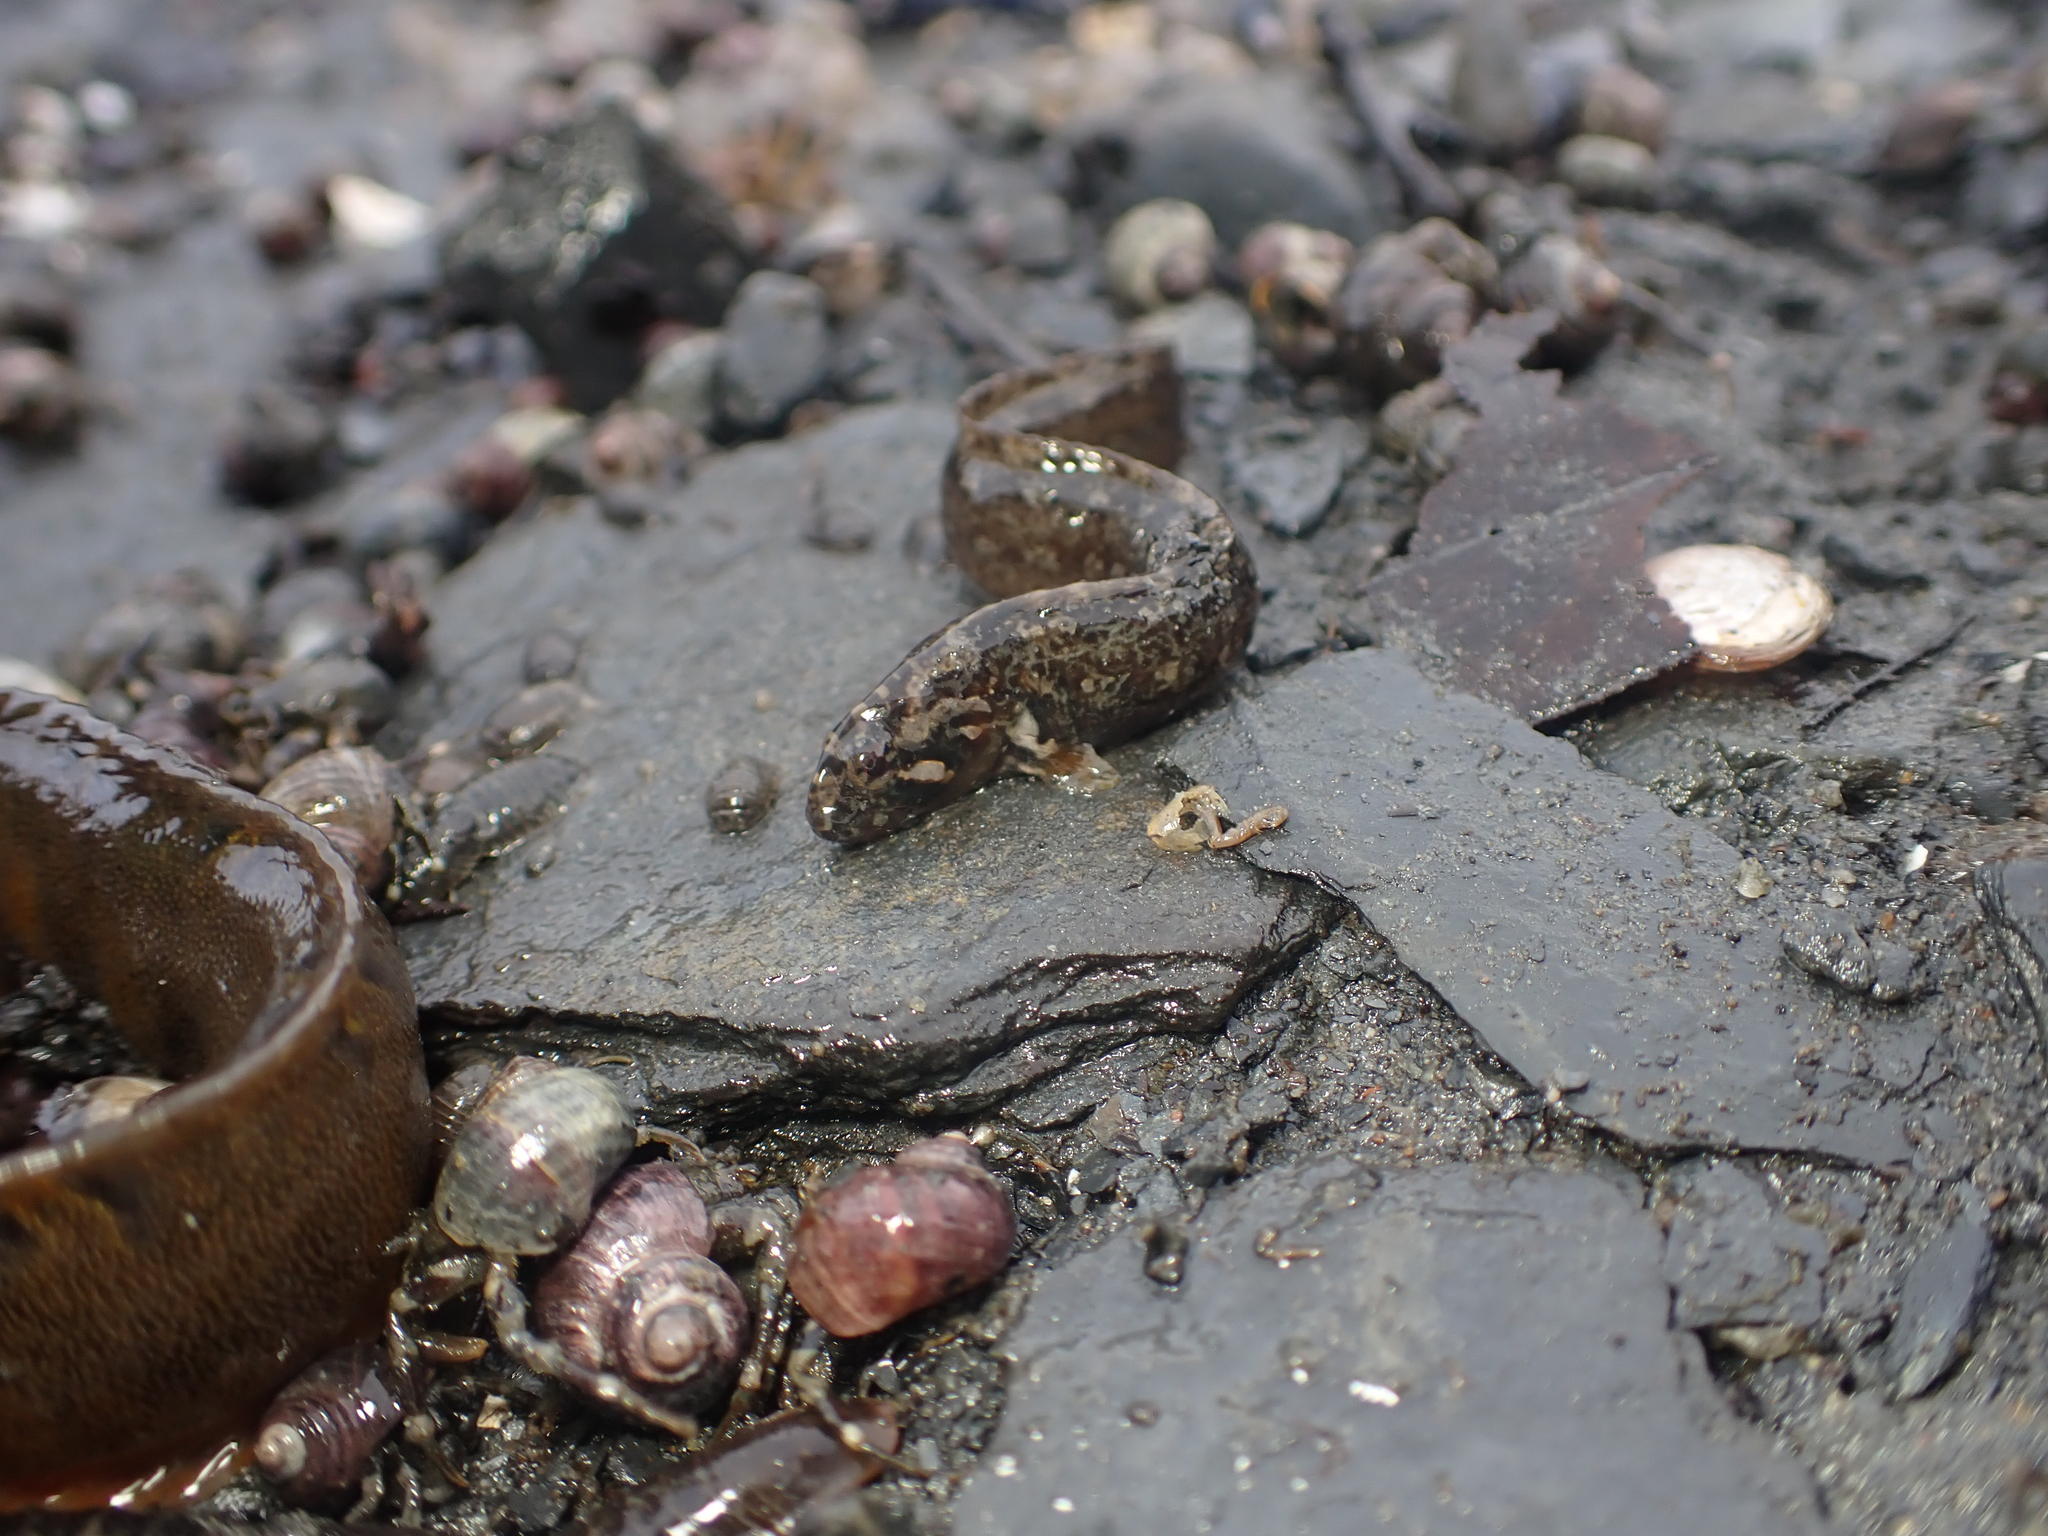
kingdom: Animalia
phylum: Chordata
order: Perciformes
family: Stichaeidae
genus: Anoplarchus
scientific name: Anoplarchus purpurescens
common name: High cockscomb
